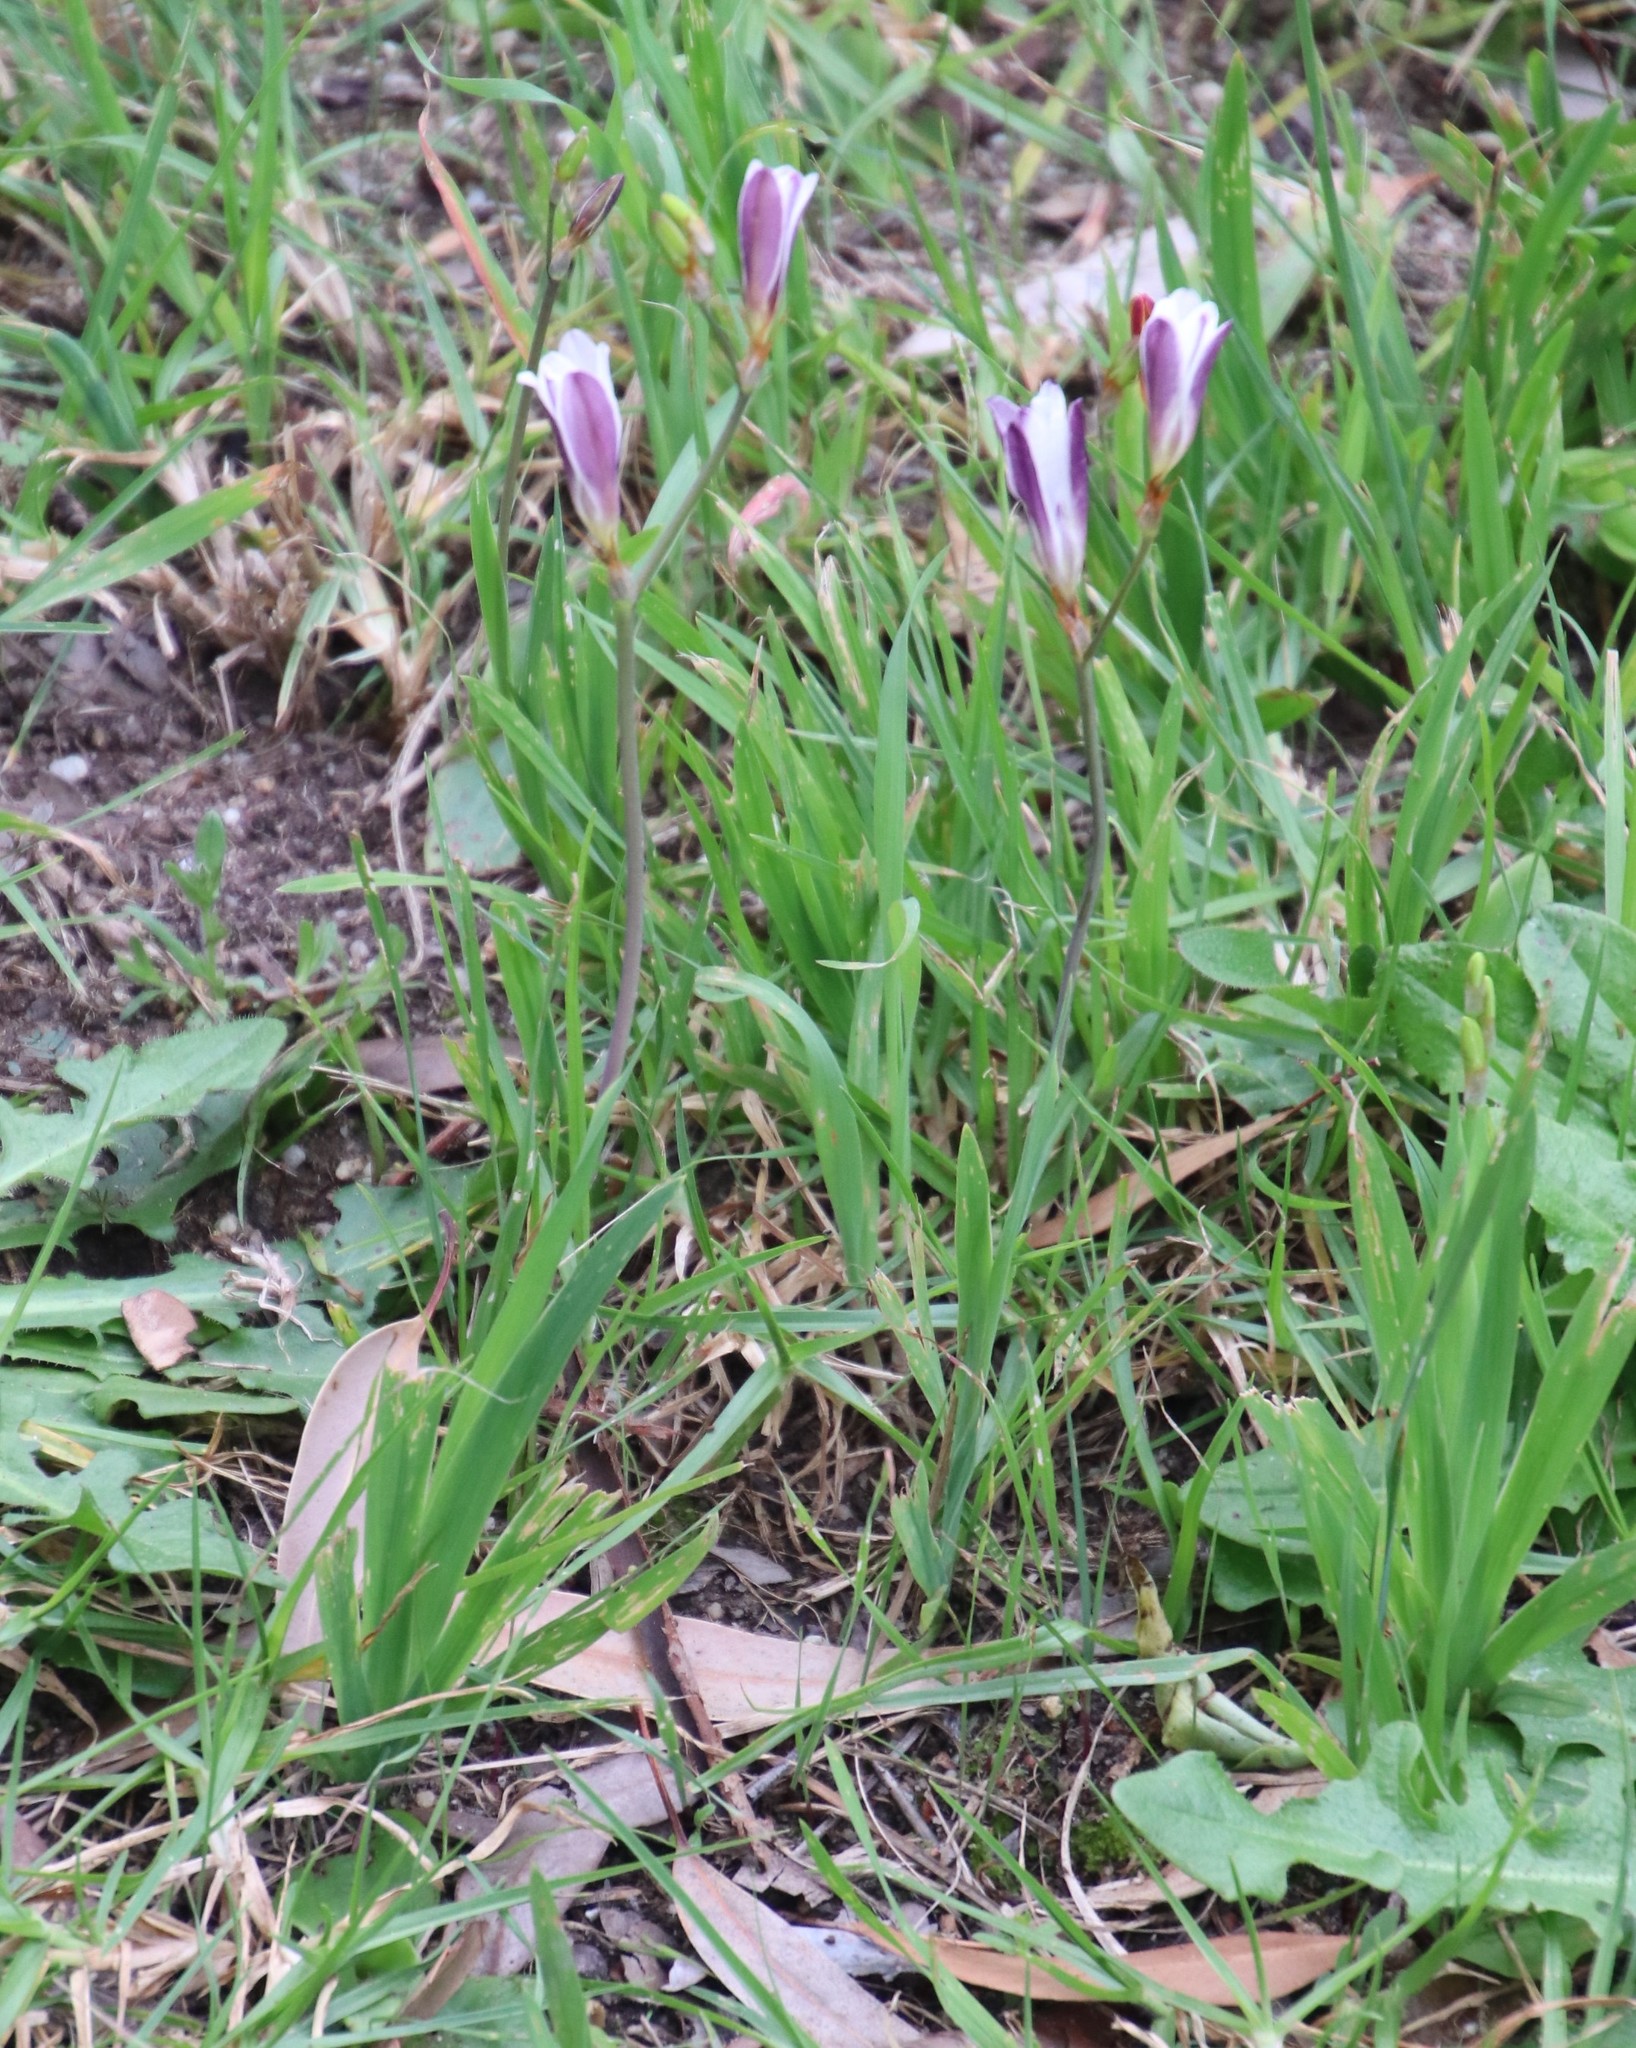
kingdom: Plantae
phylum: Tracheophyta
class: Liliopsida
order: Asparagales
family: Iridaceae
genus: Sparaxis
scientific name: Sparaxis bulbifera
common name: Harlequin-flower
